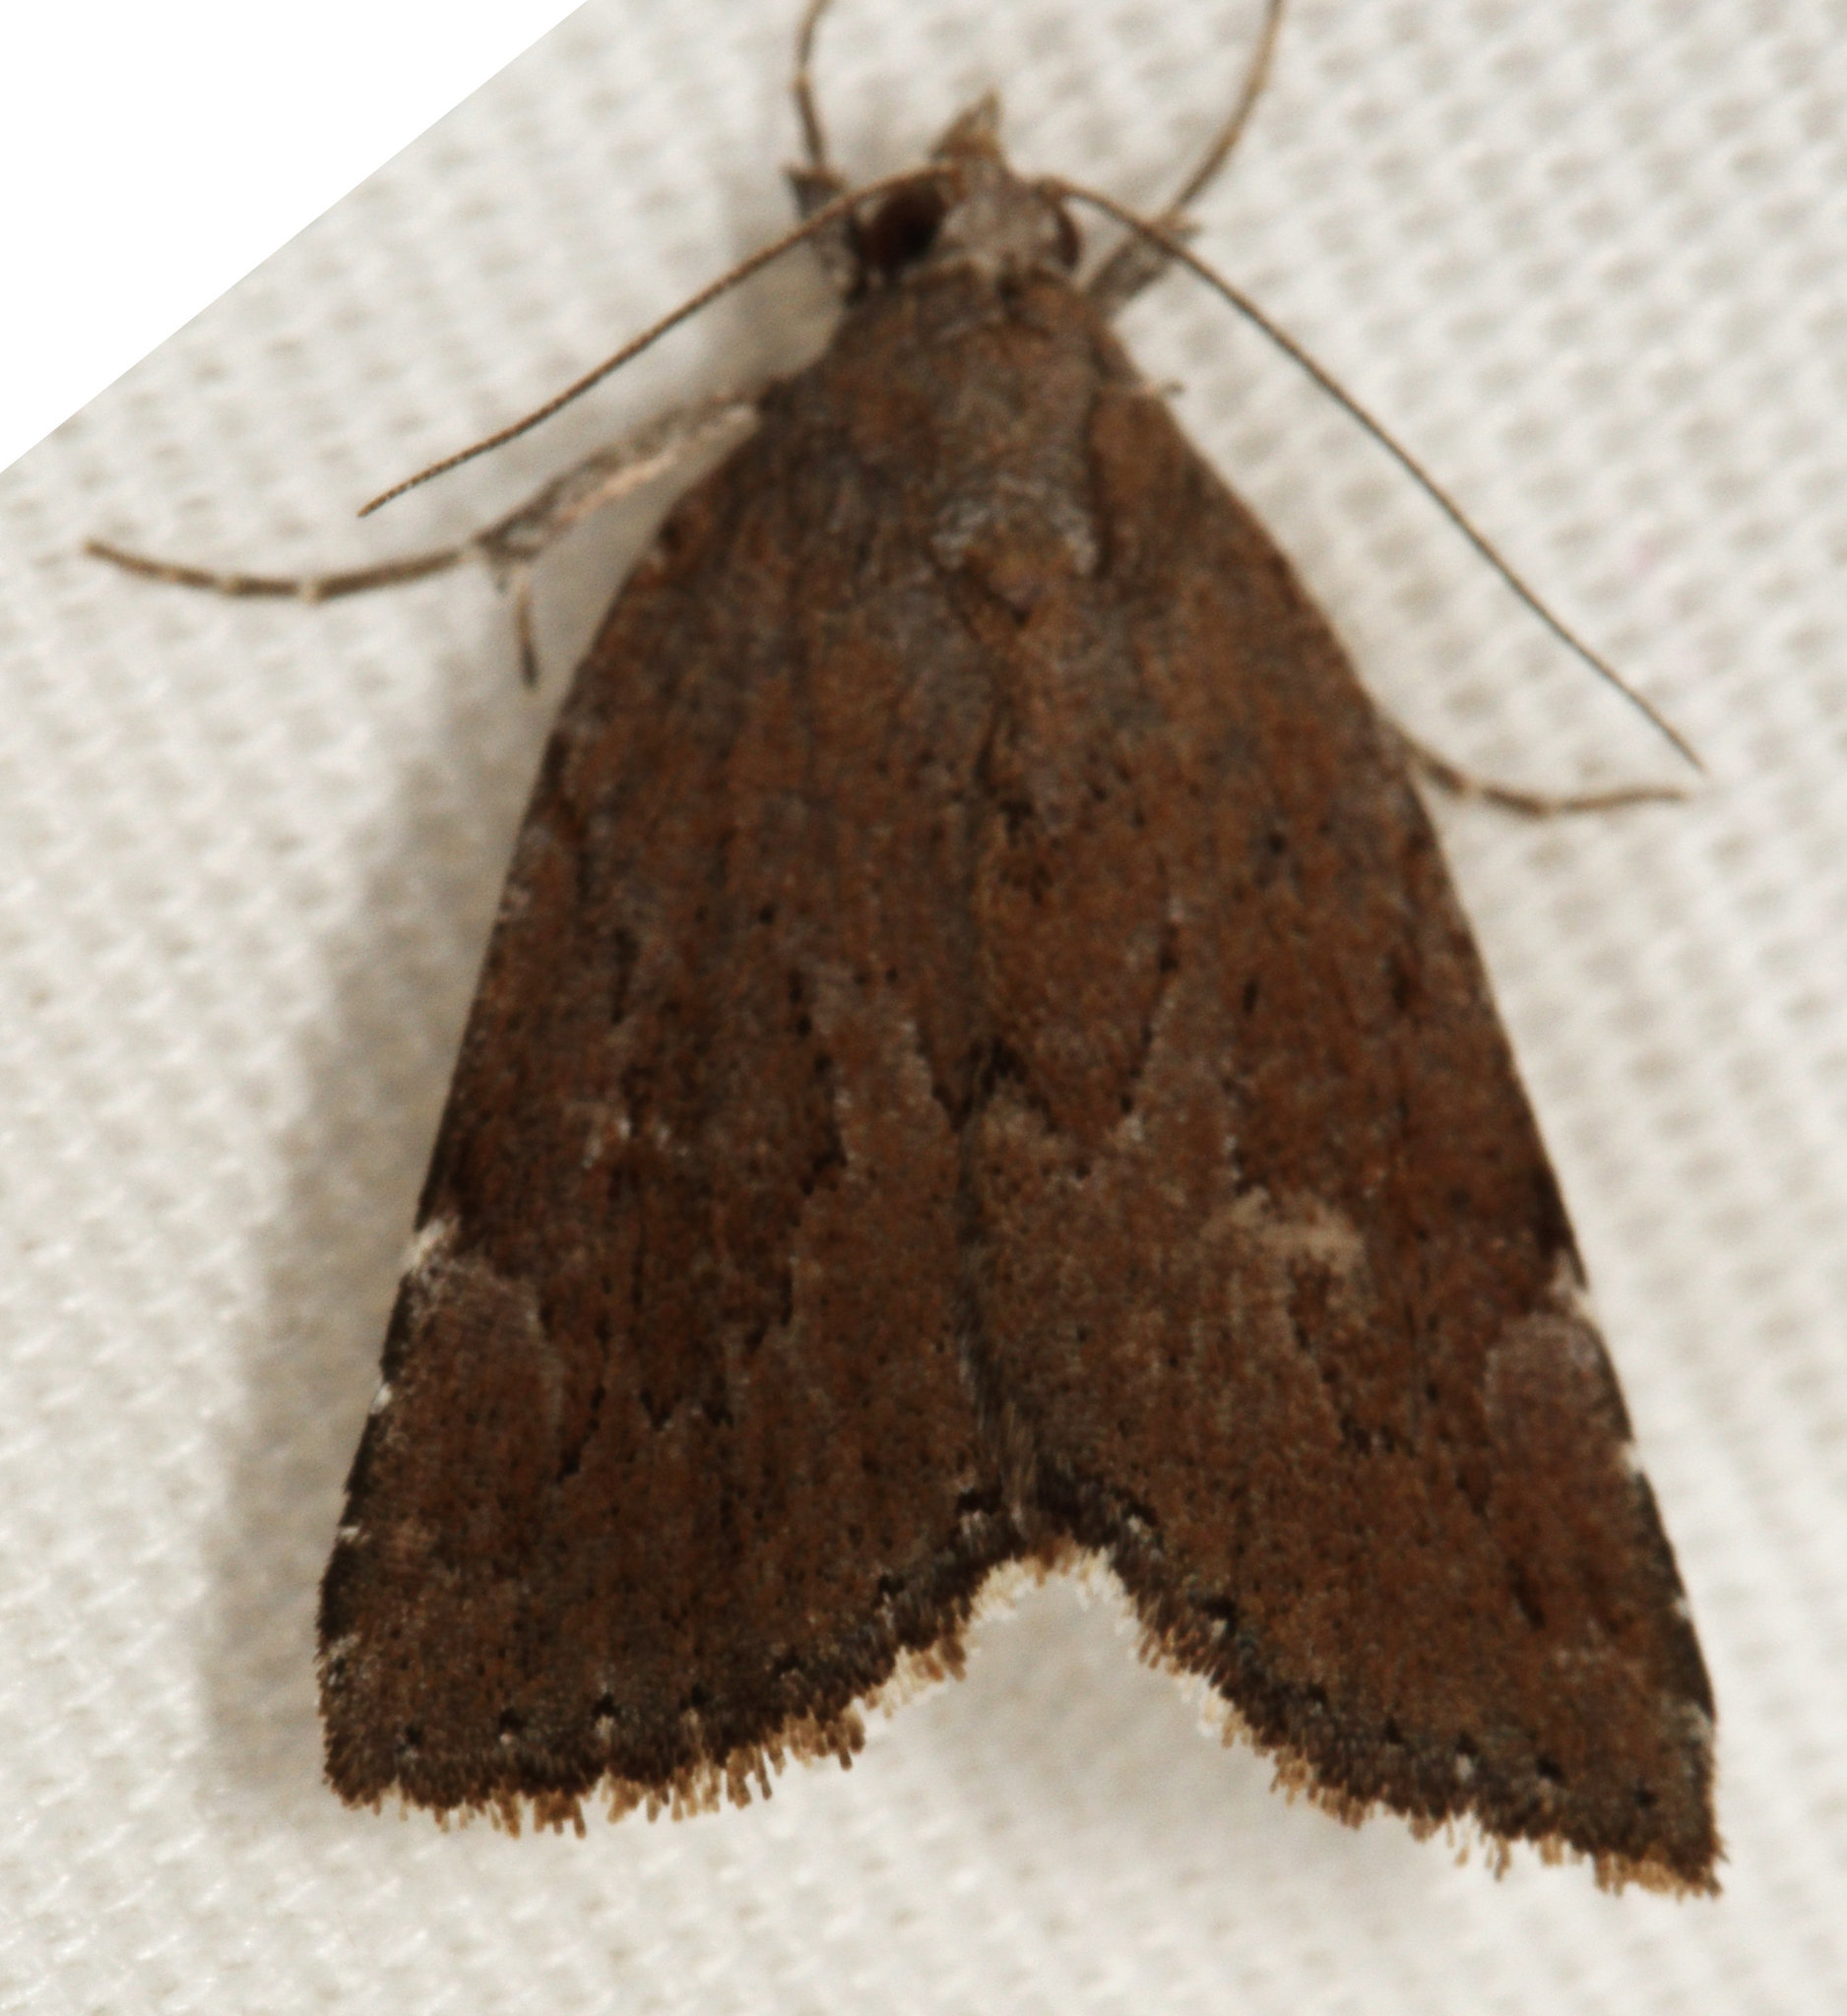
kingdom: Animalia
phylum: Arthropoda
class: Insecta
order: Lepidoptera
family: Erebidae
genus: Cutina
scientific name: Cutina albopunctella
